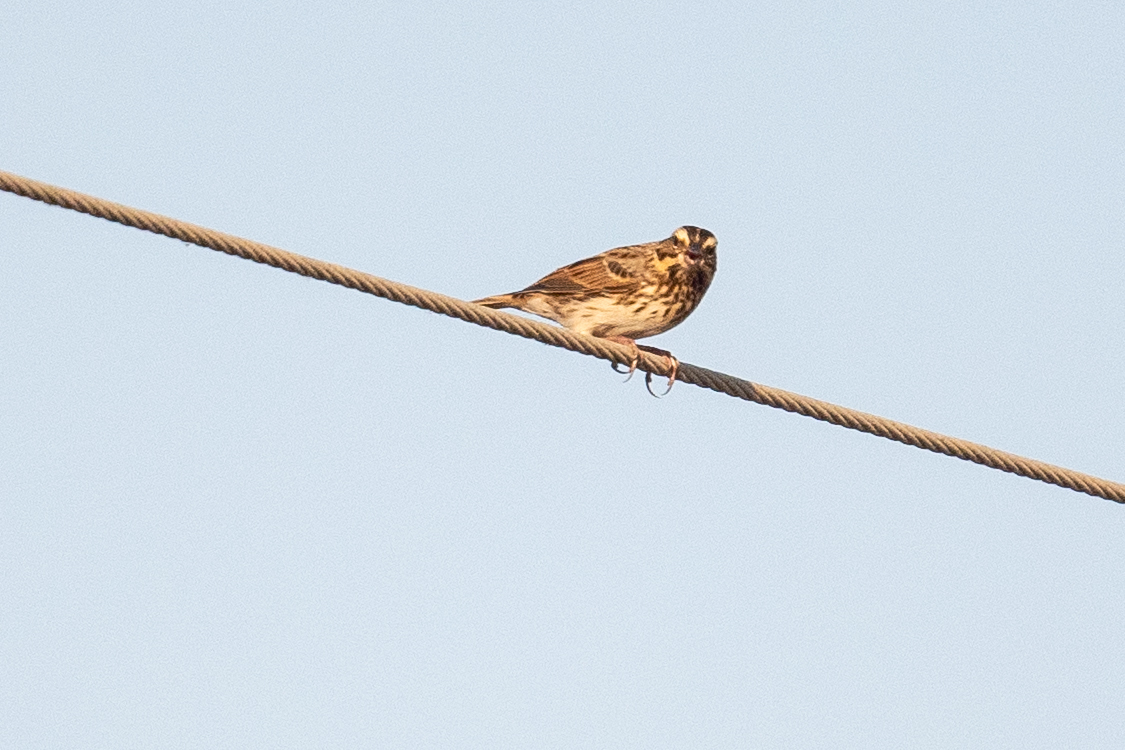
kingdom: Animalia
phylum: Chordata
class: Aves
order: Passeriformes
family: Passerellidae
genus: Passerculus
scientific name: Passerculus sandwichensis
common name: Savannah sparrow
